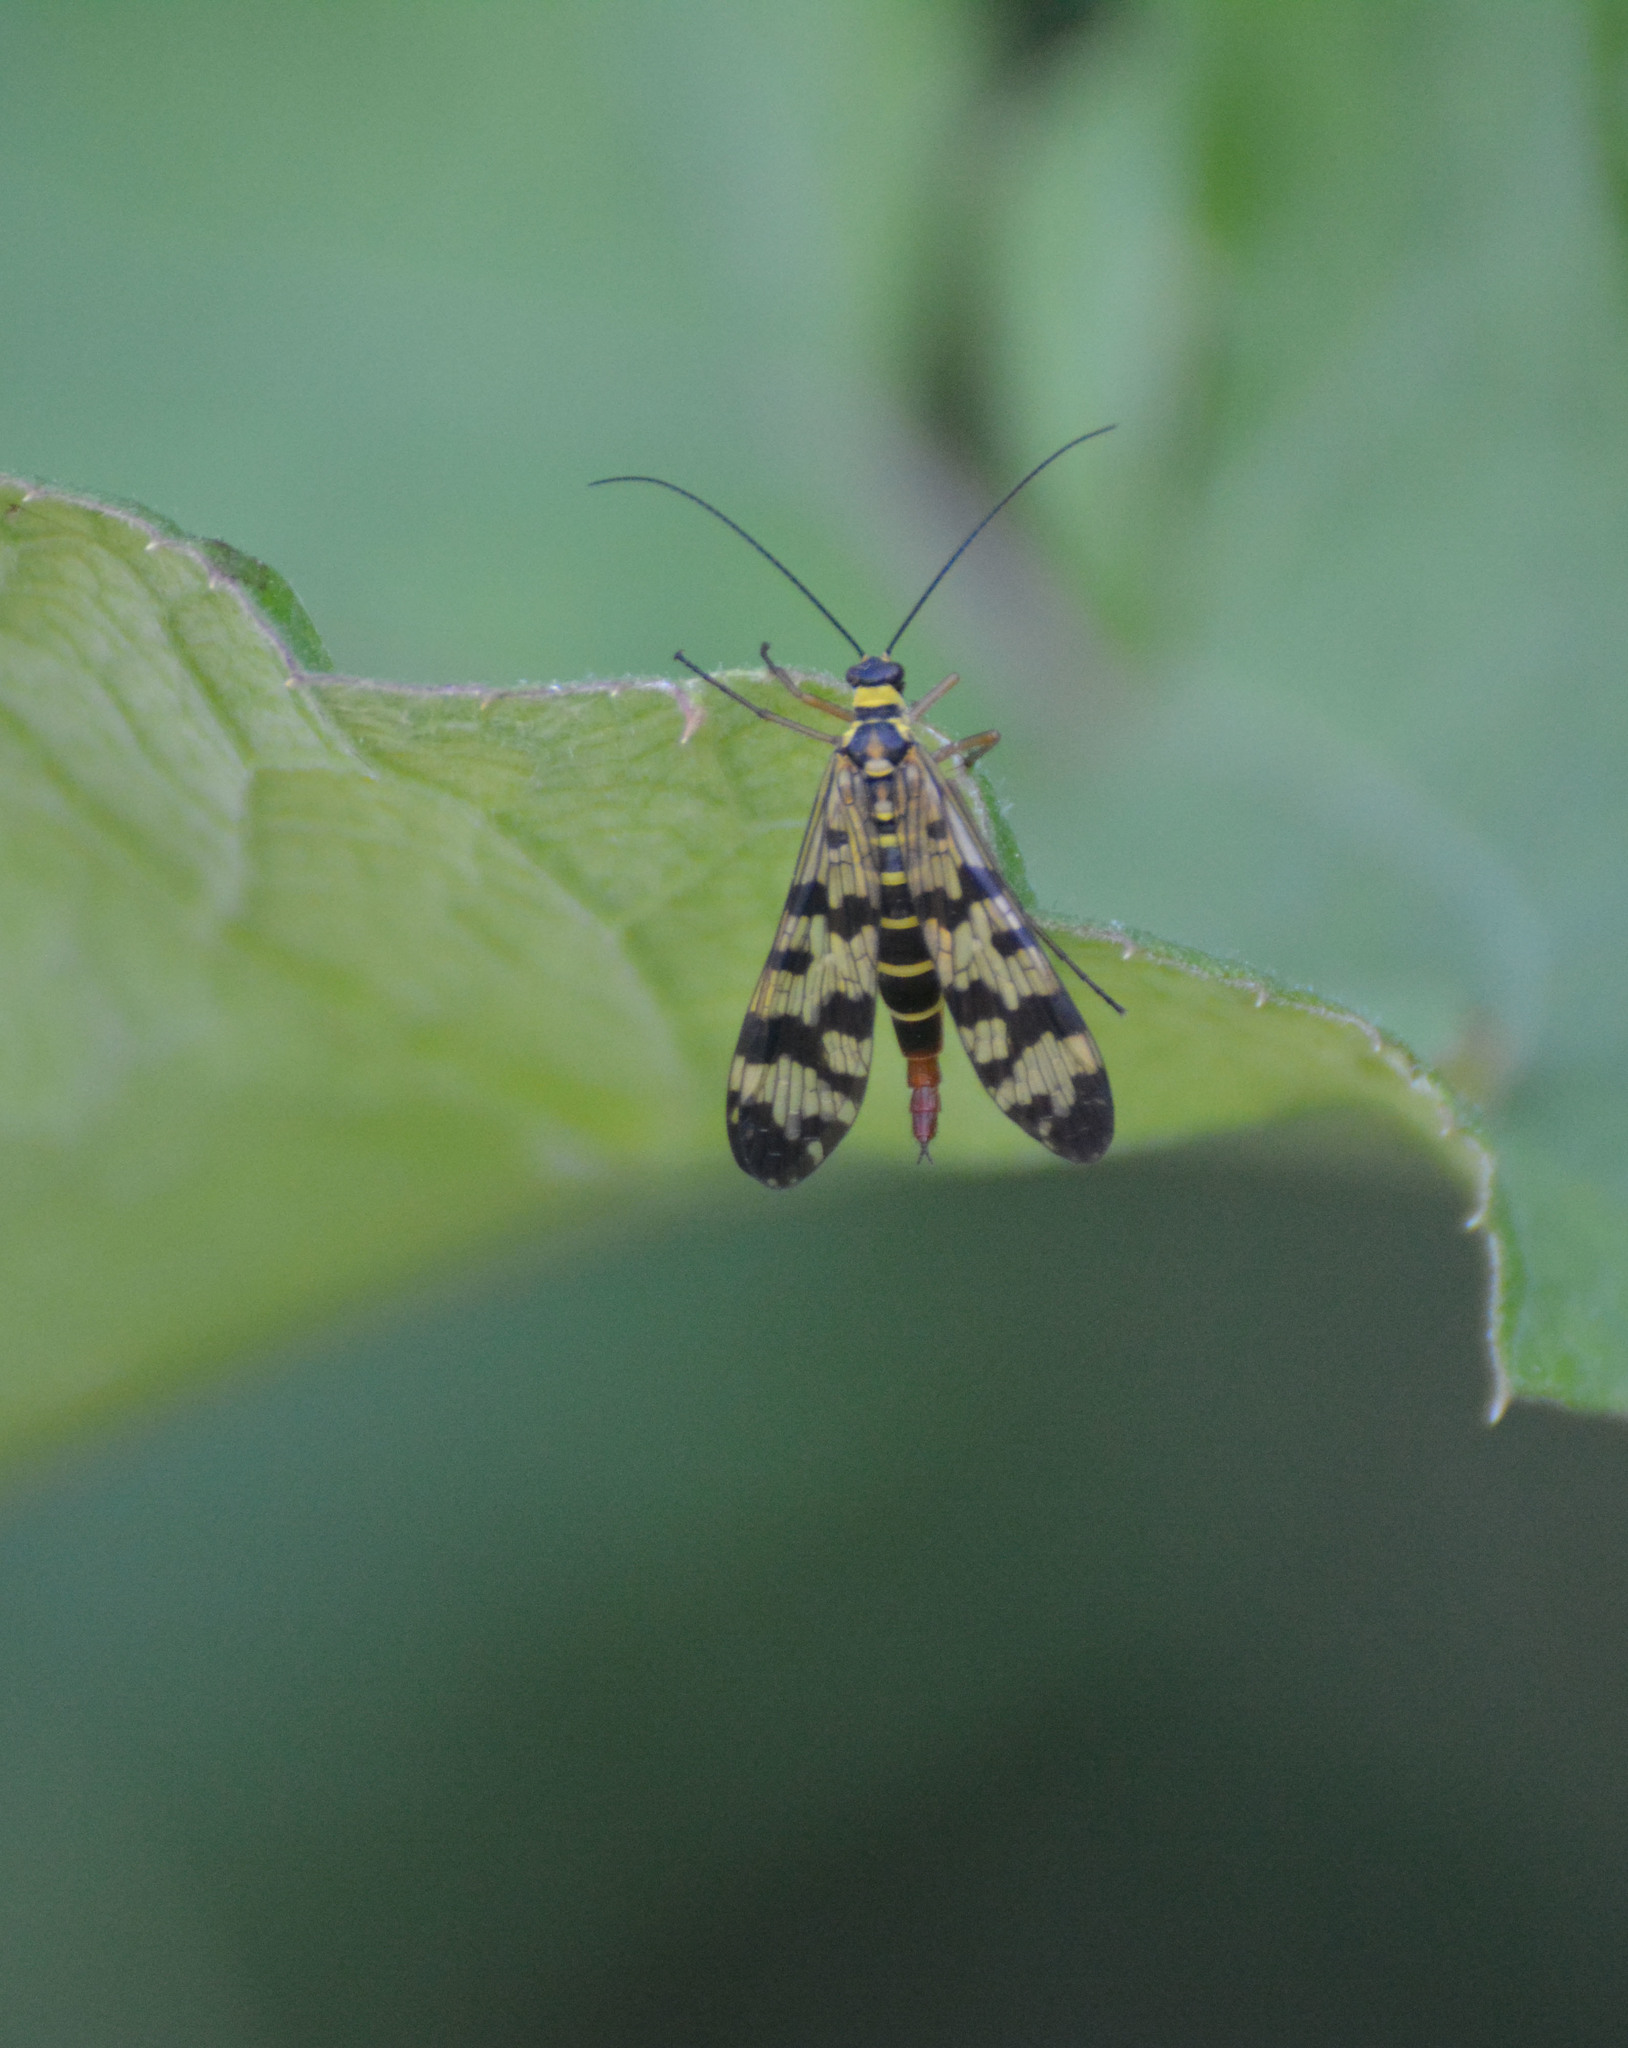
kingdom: Animalia
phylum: Arthropoda
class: Insecta
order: Mecoptera
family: Panorpidae
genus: Panorpa
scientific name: Panorpa communis
